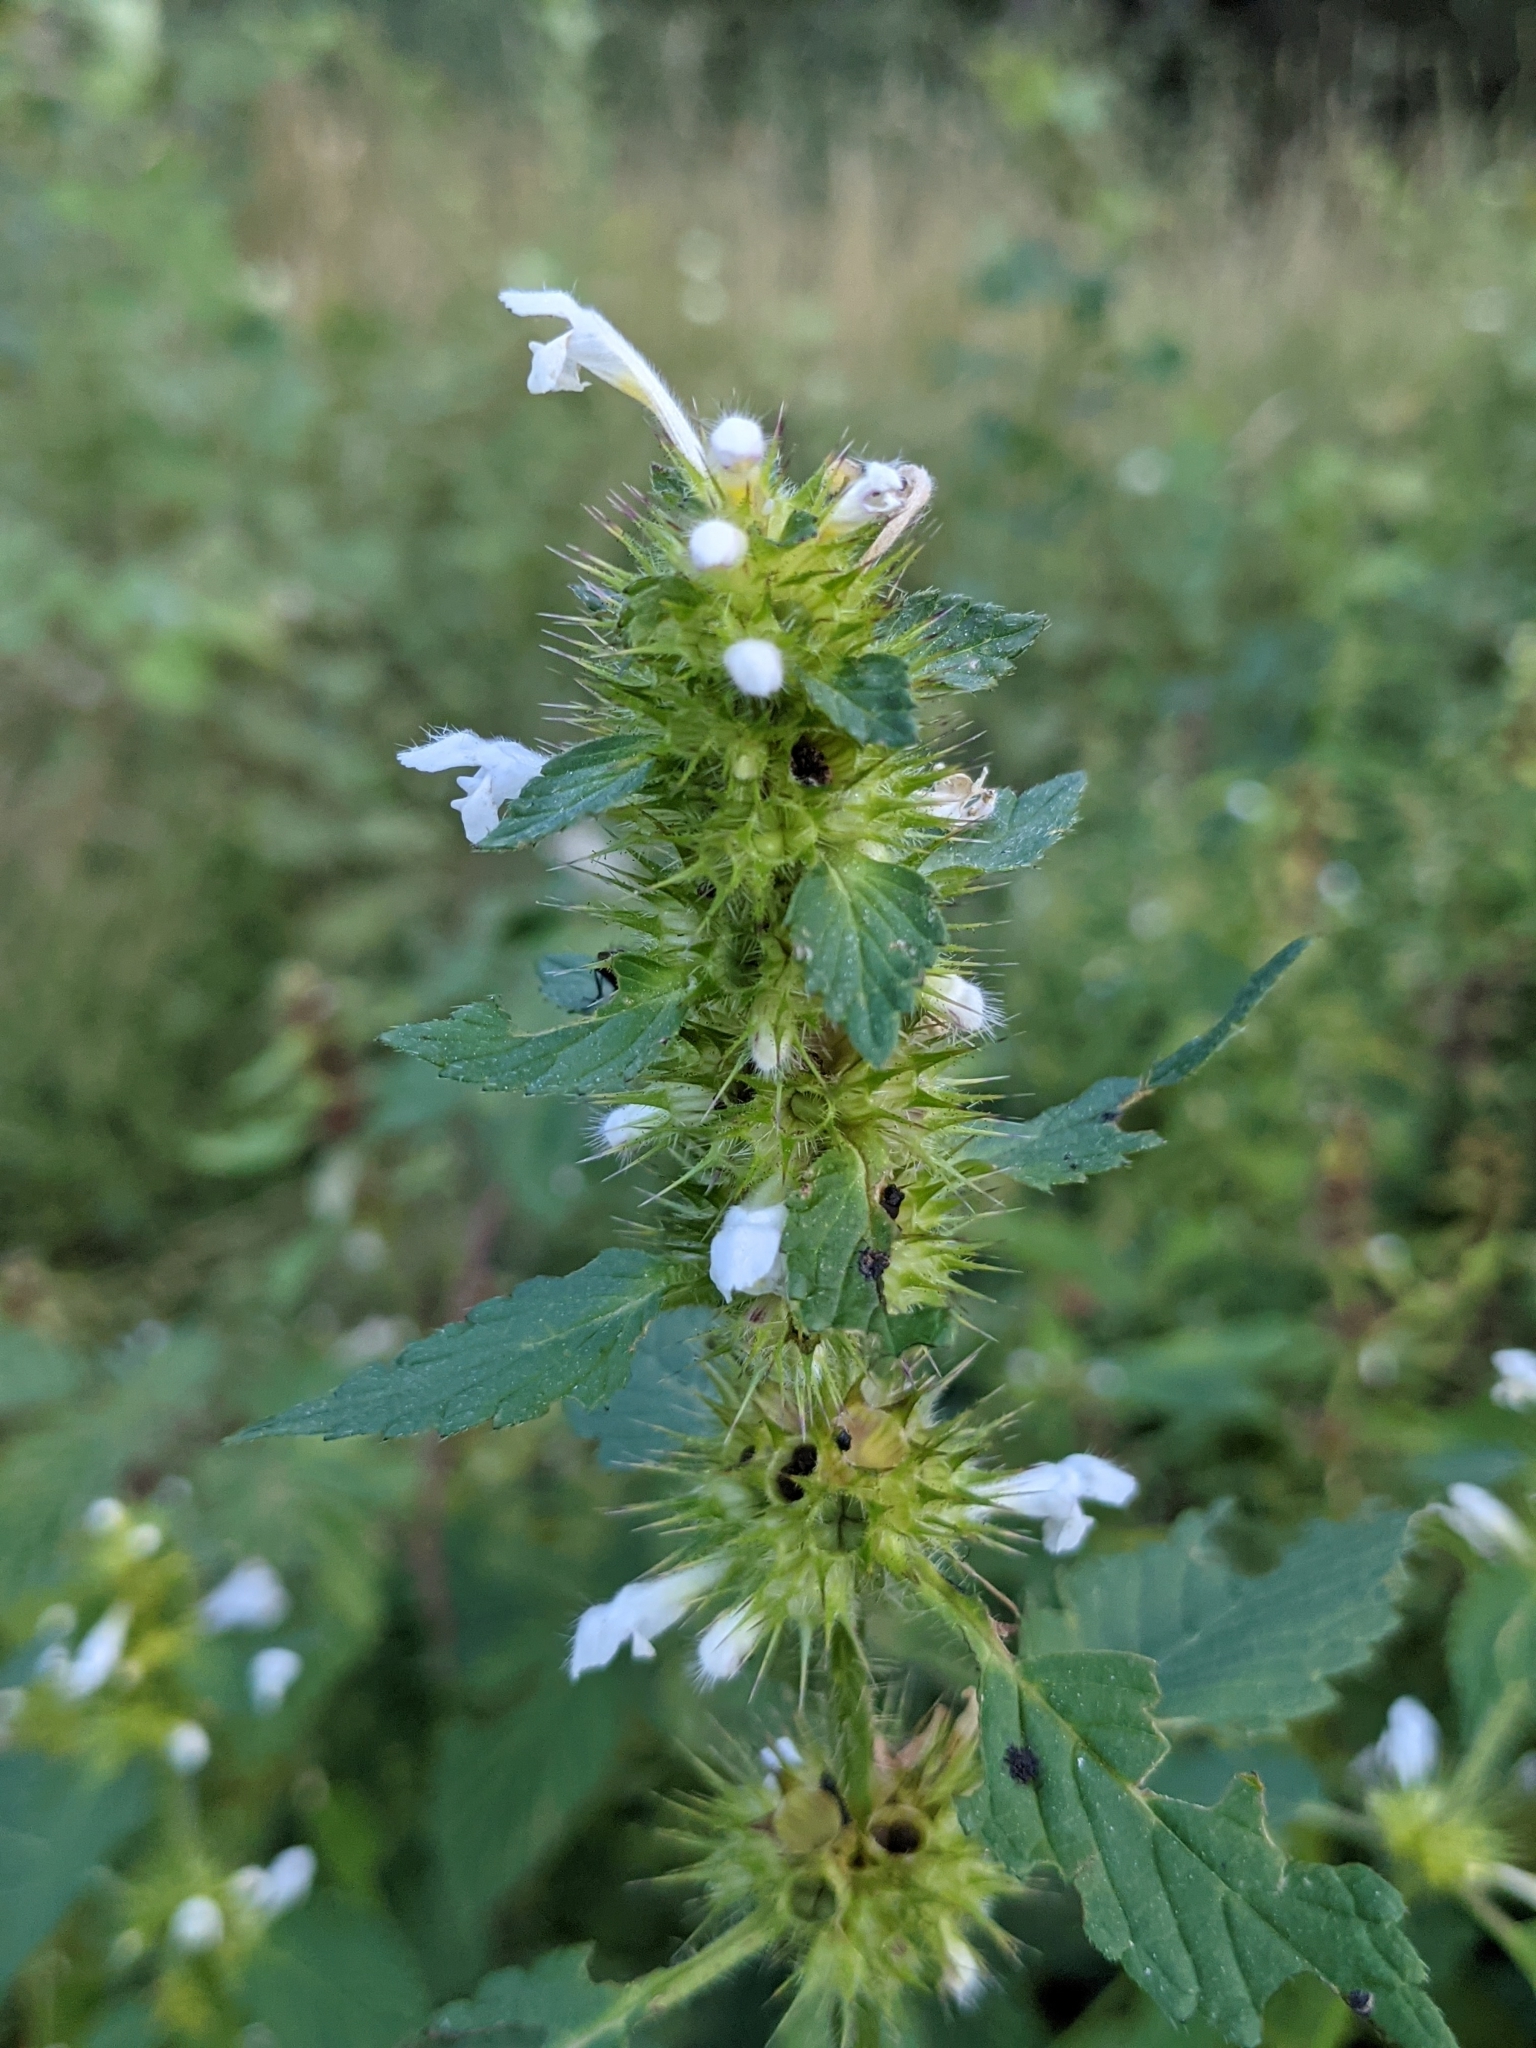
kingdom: Plantae
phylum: Tracheophyta
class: Magnoliopsida
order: Lamiales
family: Lamiaceae
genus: Galeopsis
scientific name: Galeopsis tetrahit
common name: Common hemp-nettle
